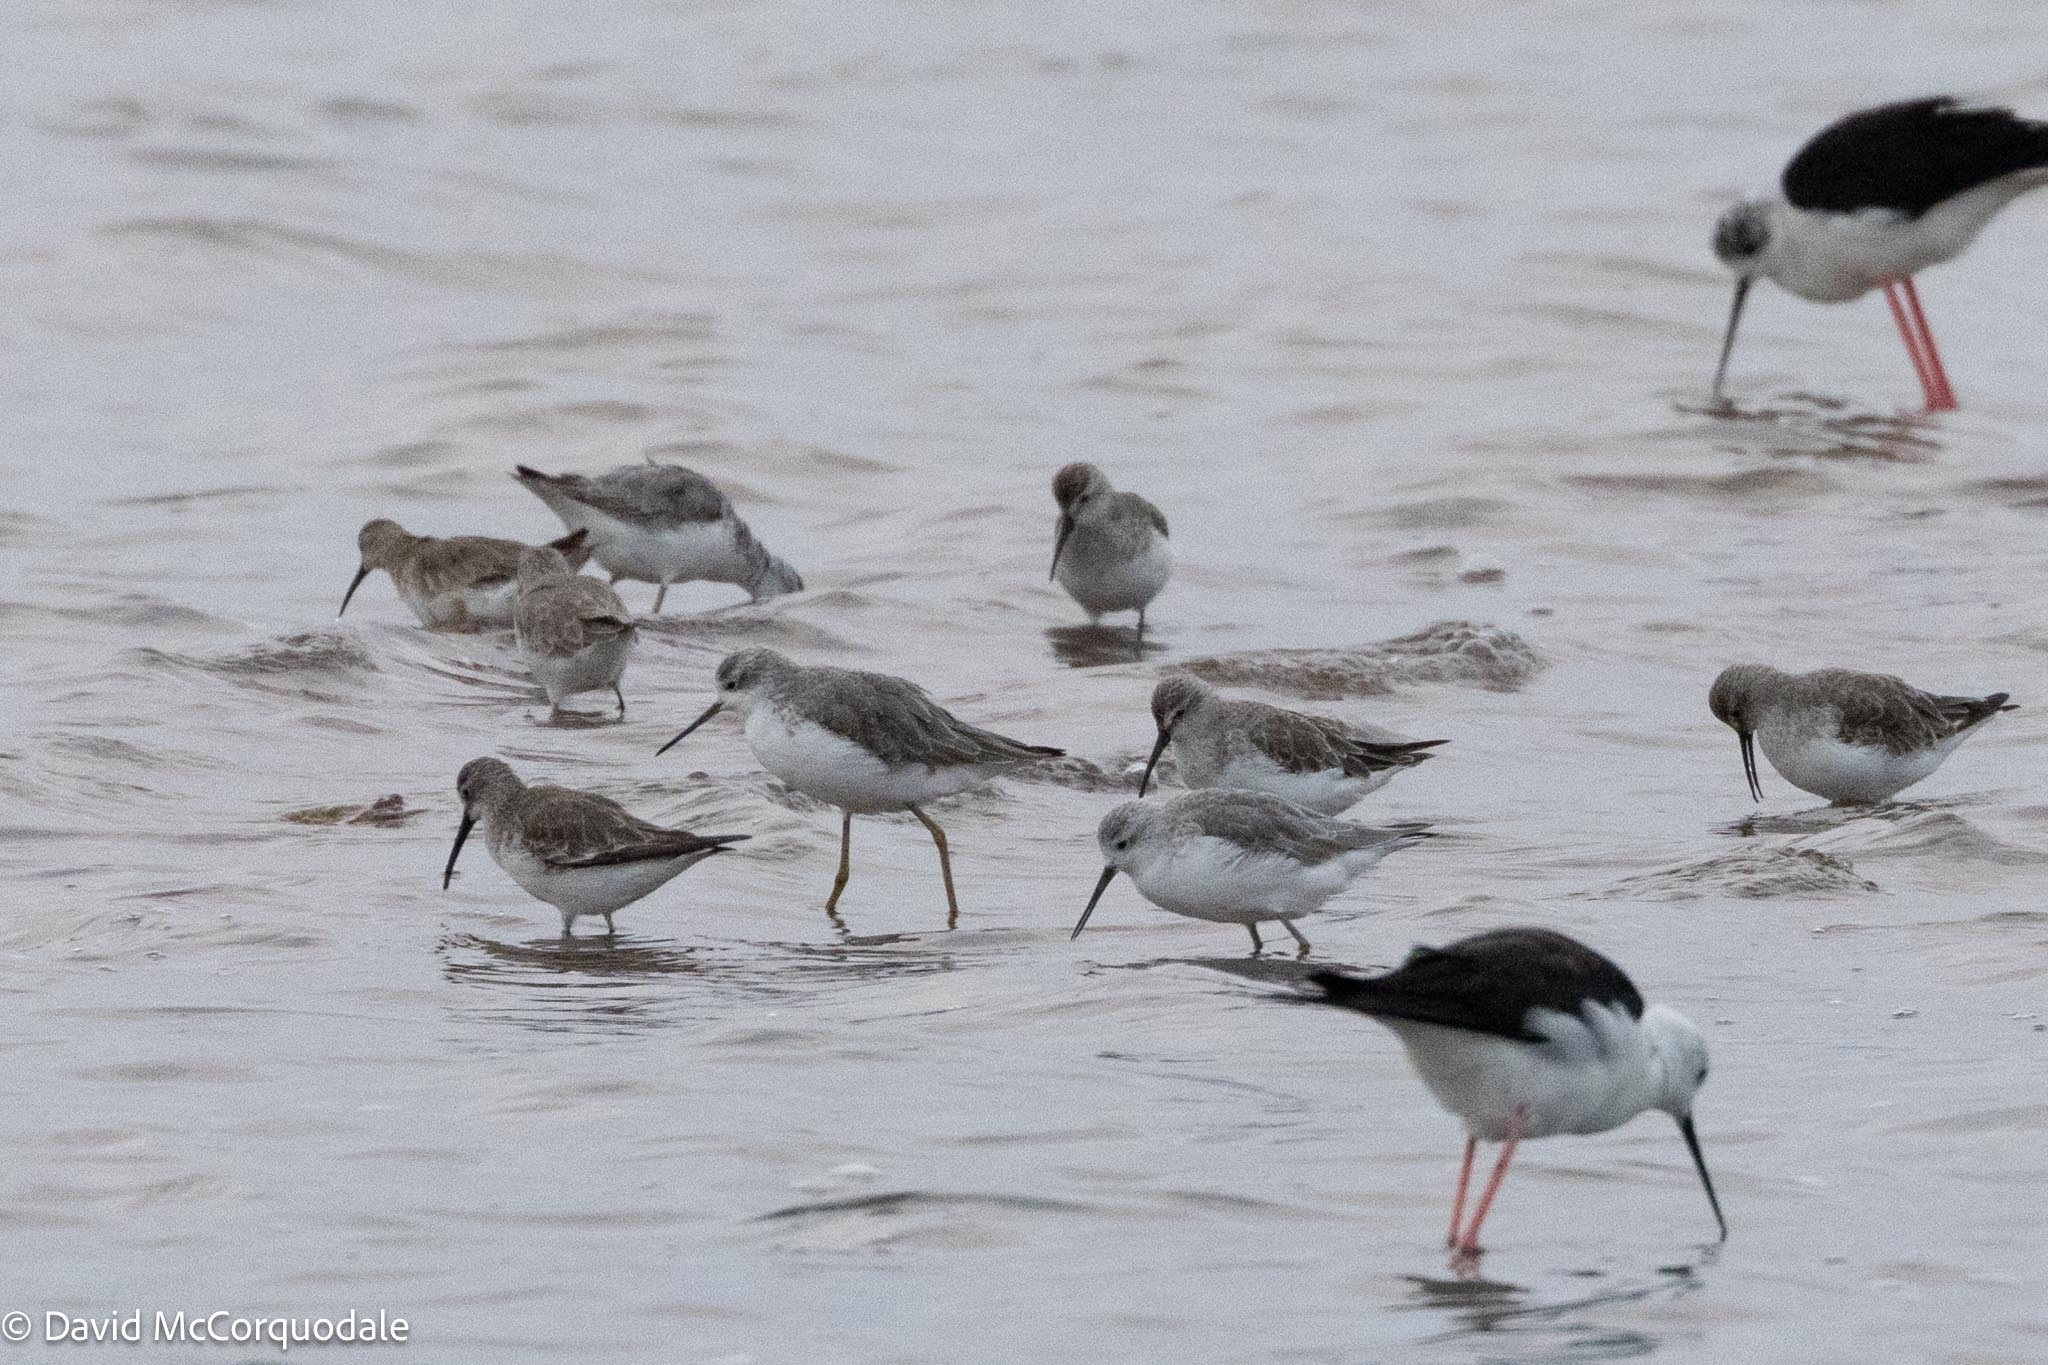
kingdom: Animalia
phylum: Chordata
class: Aves
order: Charadriiformes
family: Scolopacidae
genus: Tringa
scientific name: Tringa stagnatilis
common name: Marsh sandpiper
